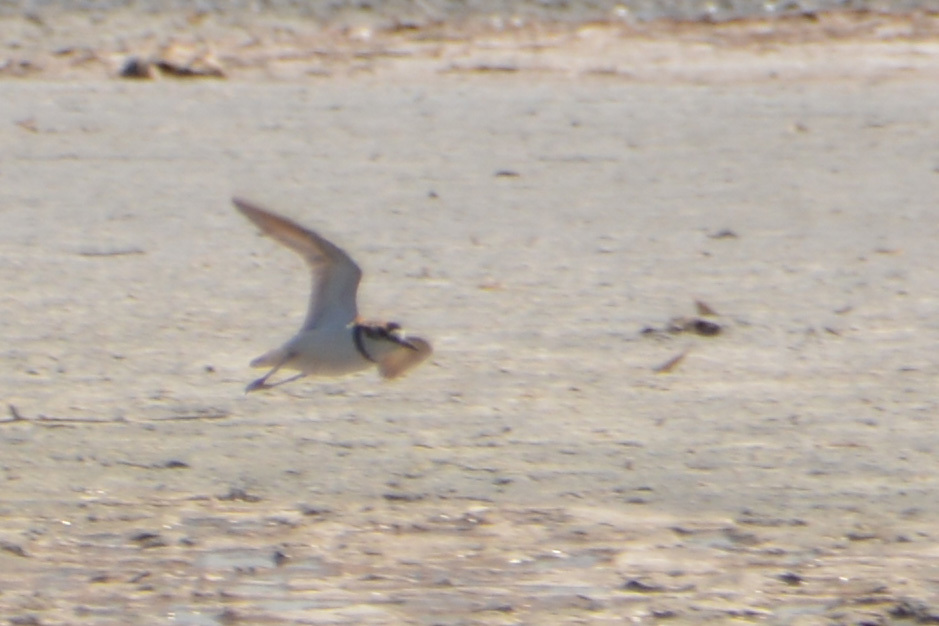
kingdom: Animalia
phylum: Chordata
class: Aves
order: Charadriiformes
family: Charadriidae
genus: Anarhynchus
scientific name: Anarhynchus
